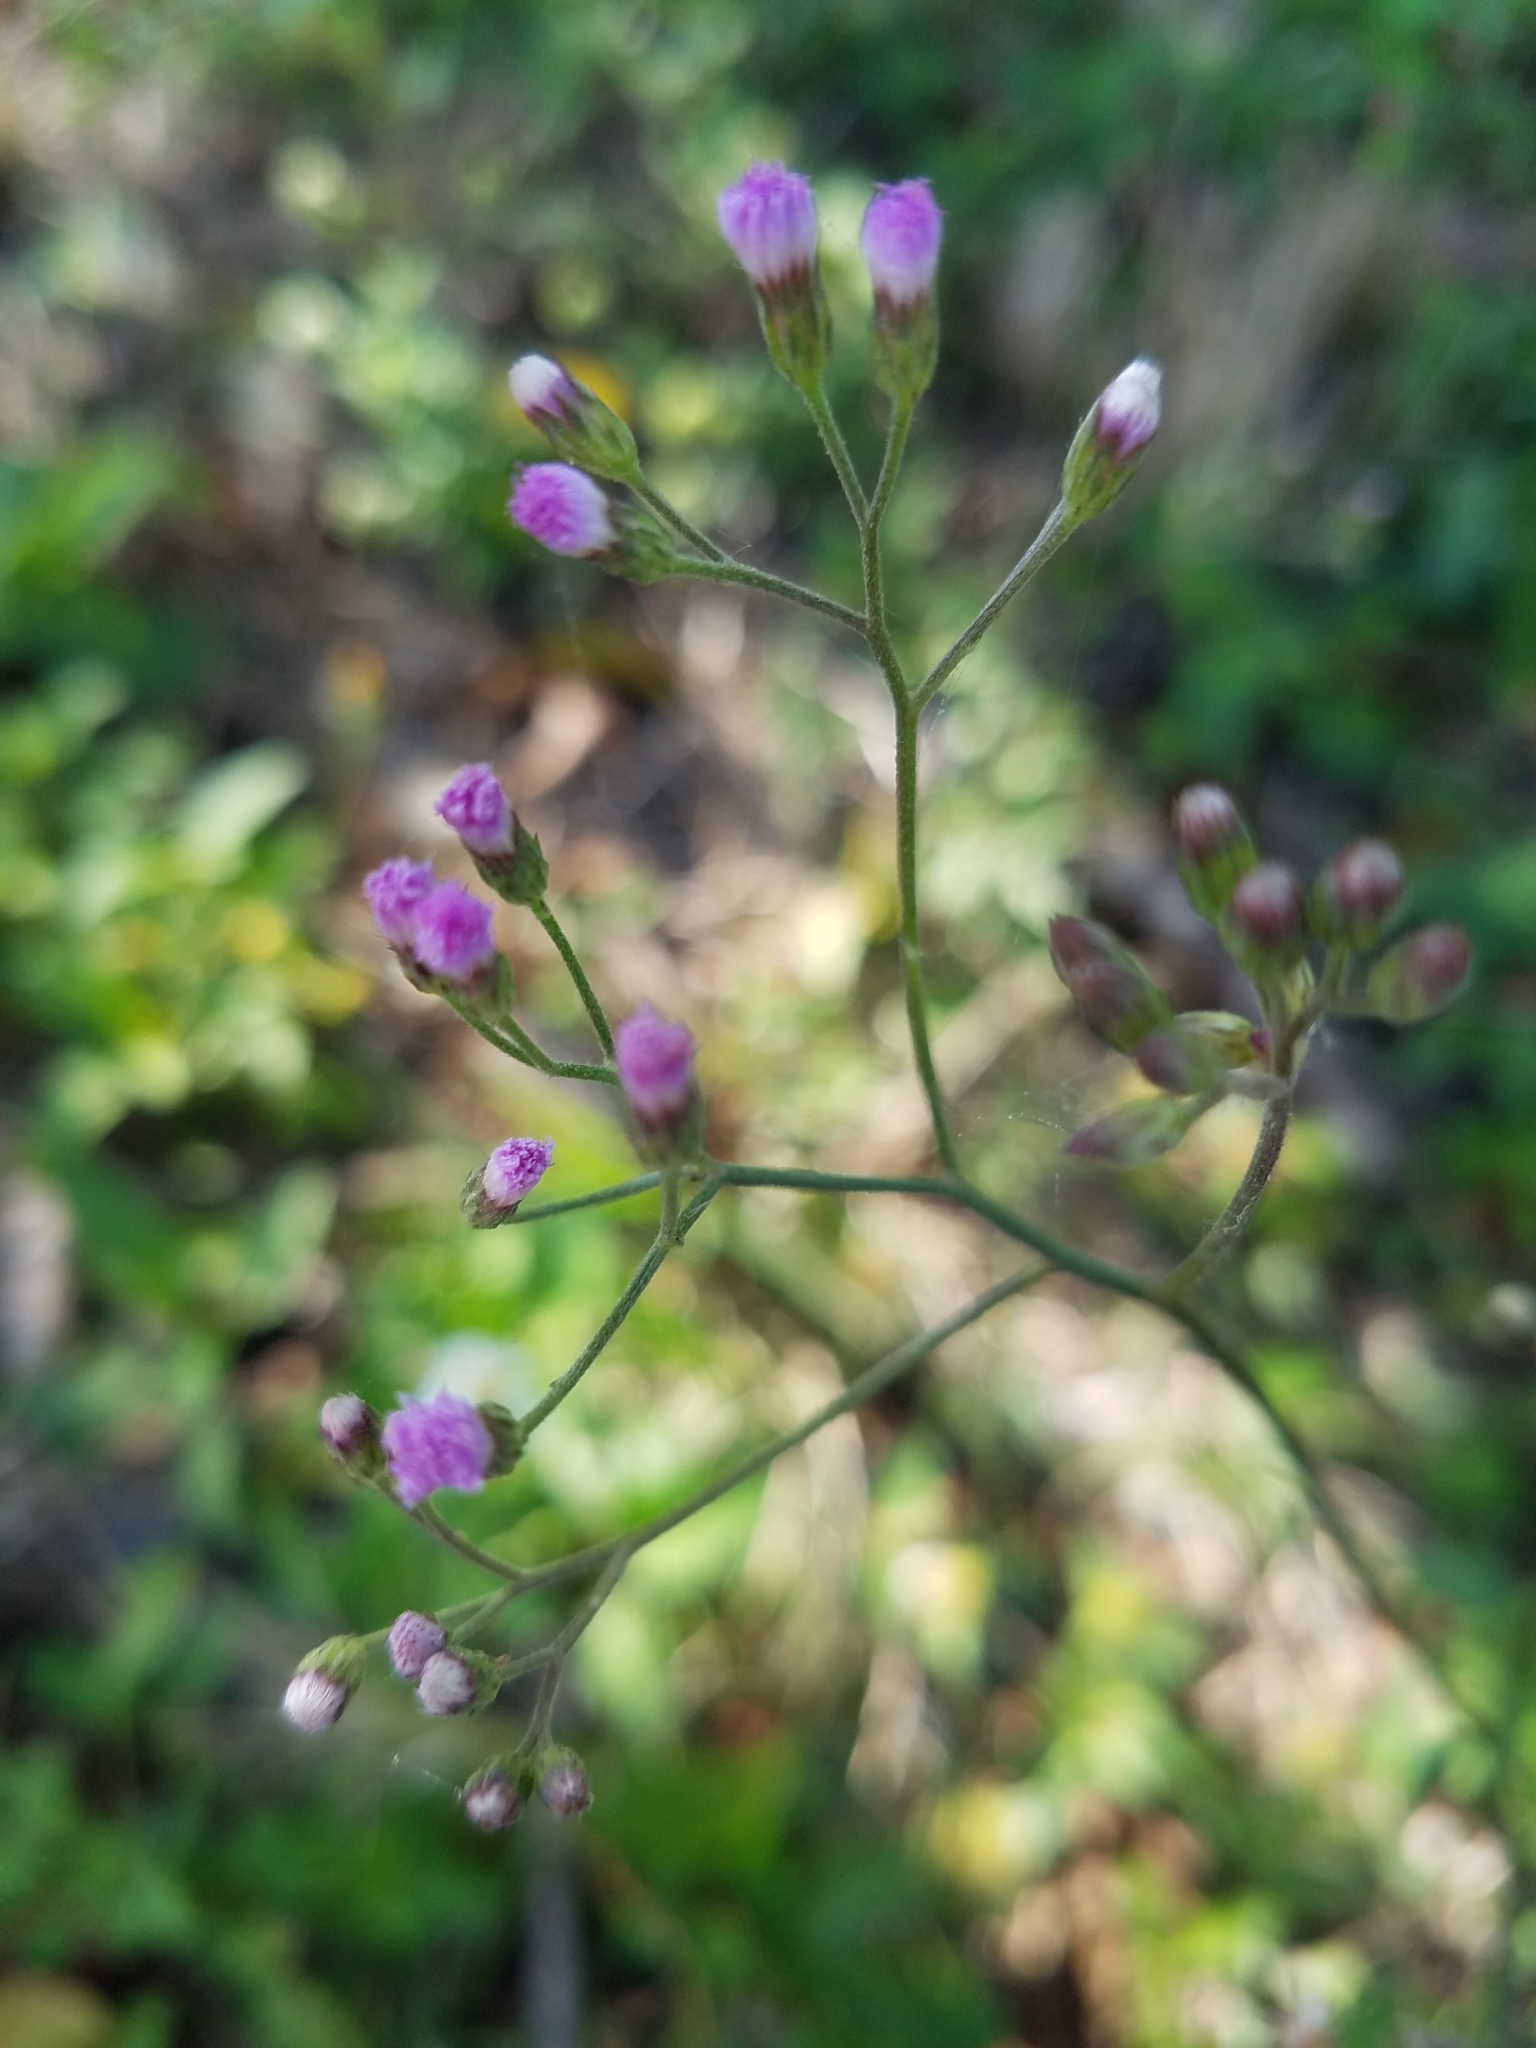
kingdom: Plantae
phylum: Tracheophyta
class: Magnoliopsida
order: Asterales
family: Asteraceae
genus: Cyanthillium
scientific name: Cyanthillium cinereum
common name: Little ironweed
